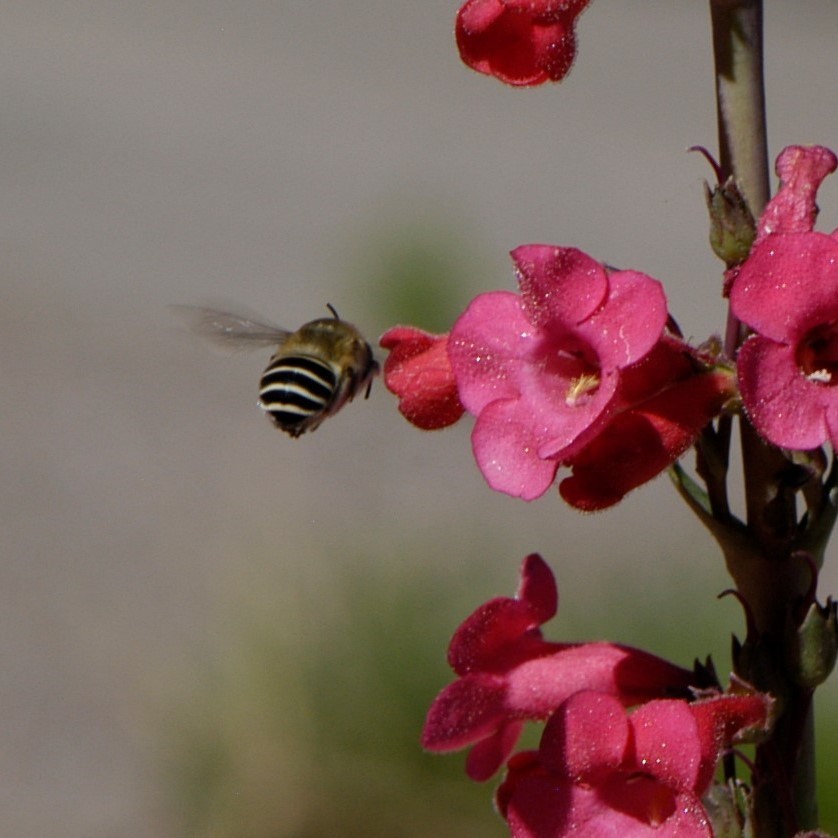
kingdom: Animalia
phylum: Arthropoda
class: Insecta
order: Hymenoptera
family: Apidae
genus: Anthophora
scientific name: Anthophora californica
